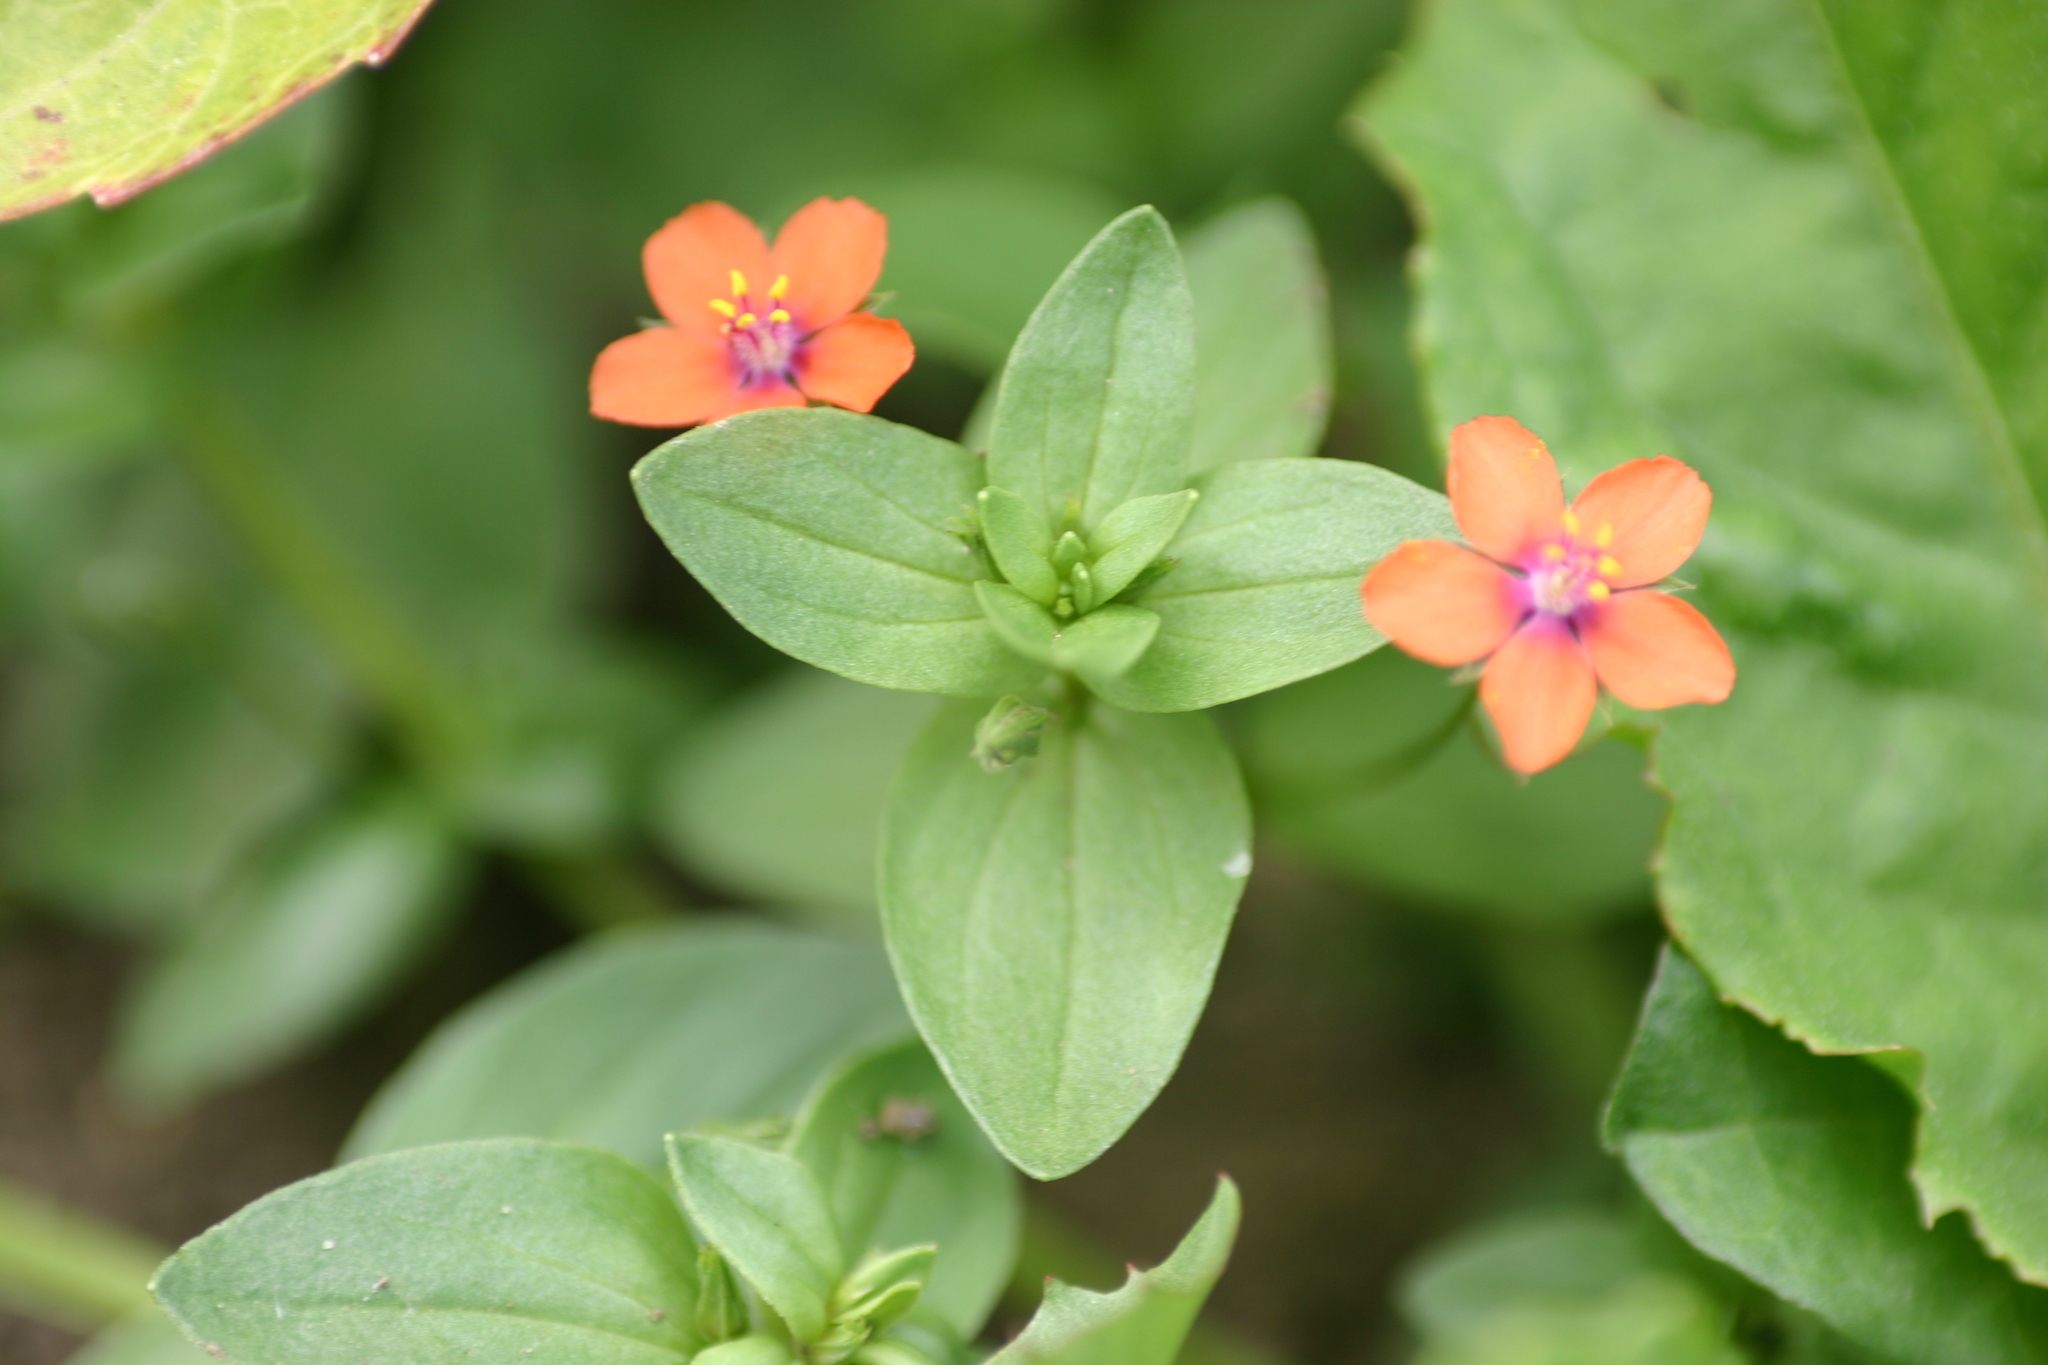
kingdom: Plantae
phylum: Tracheophyta
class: Magnoliopsida
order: Ericales
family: Primulaceae
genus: Lysimachia
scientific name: Lysimachia arvensis
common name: Scarlet pimpernel
